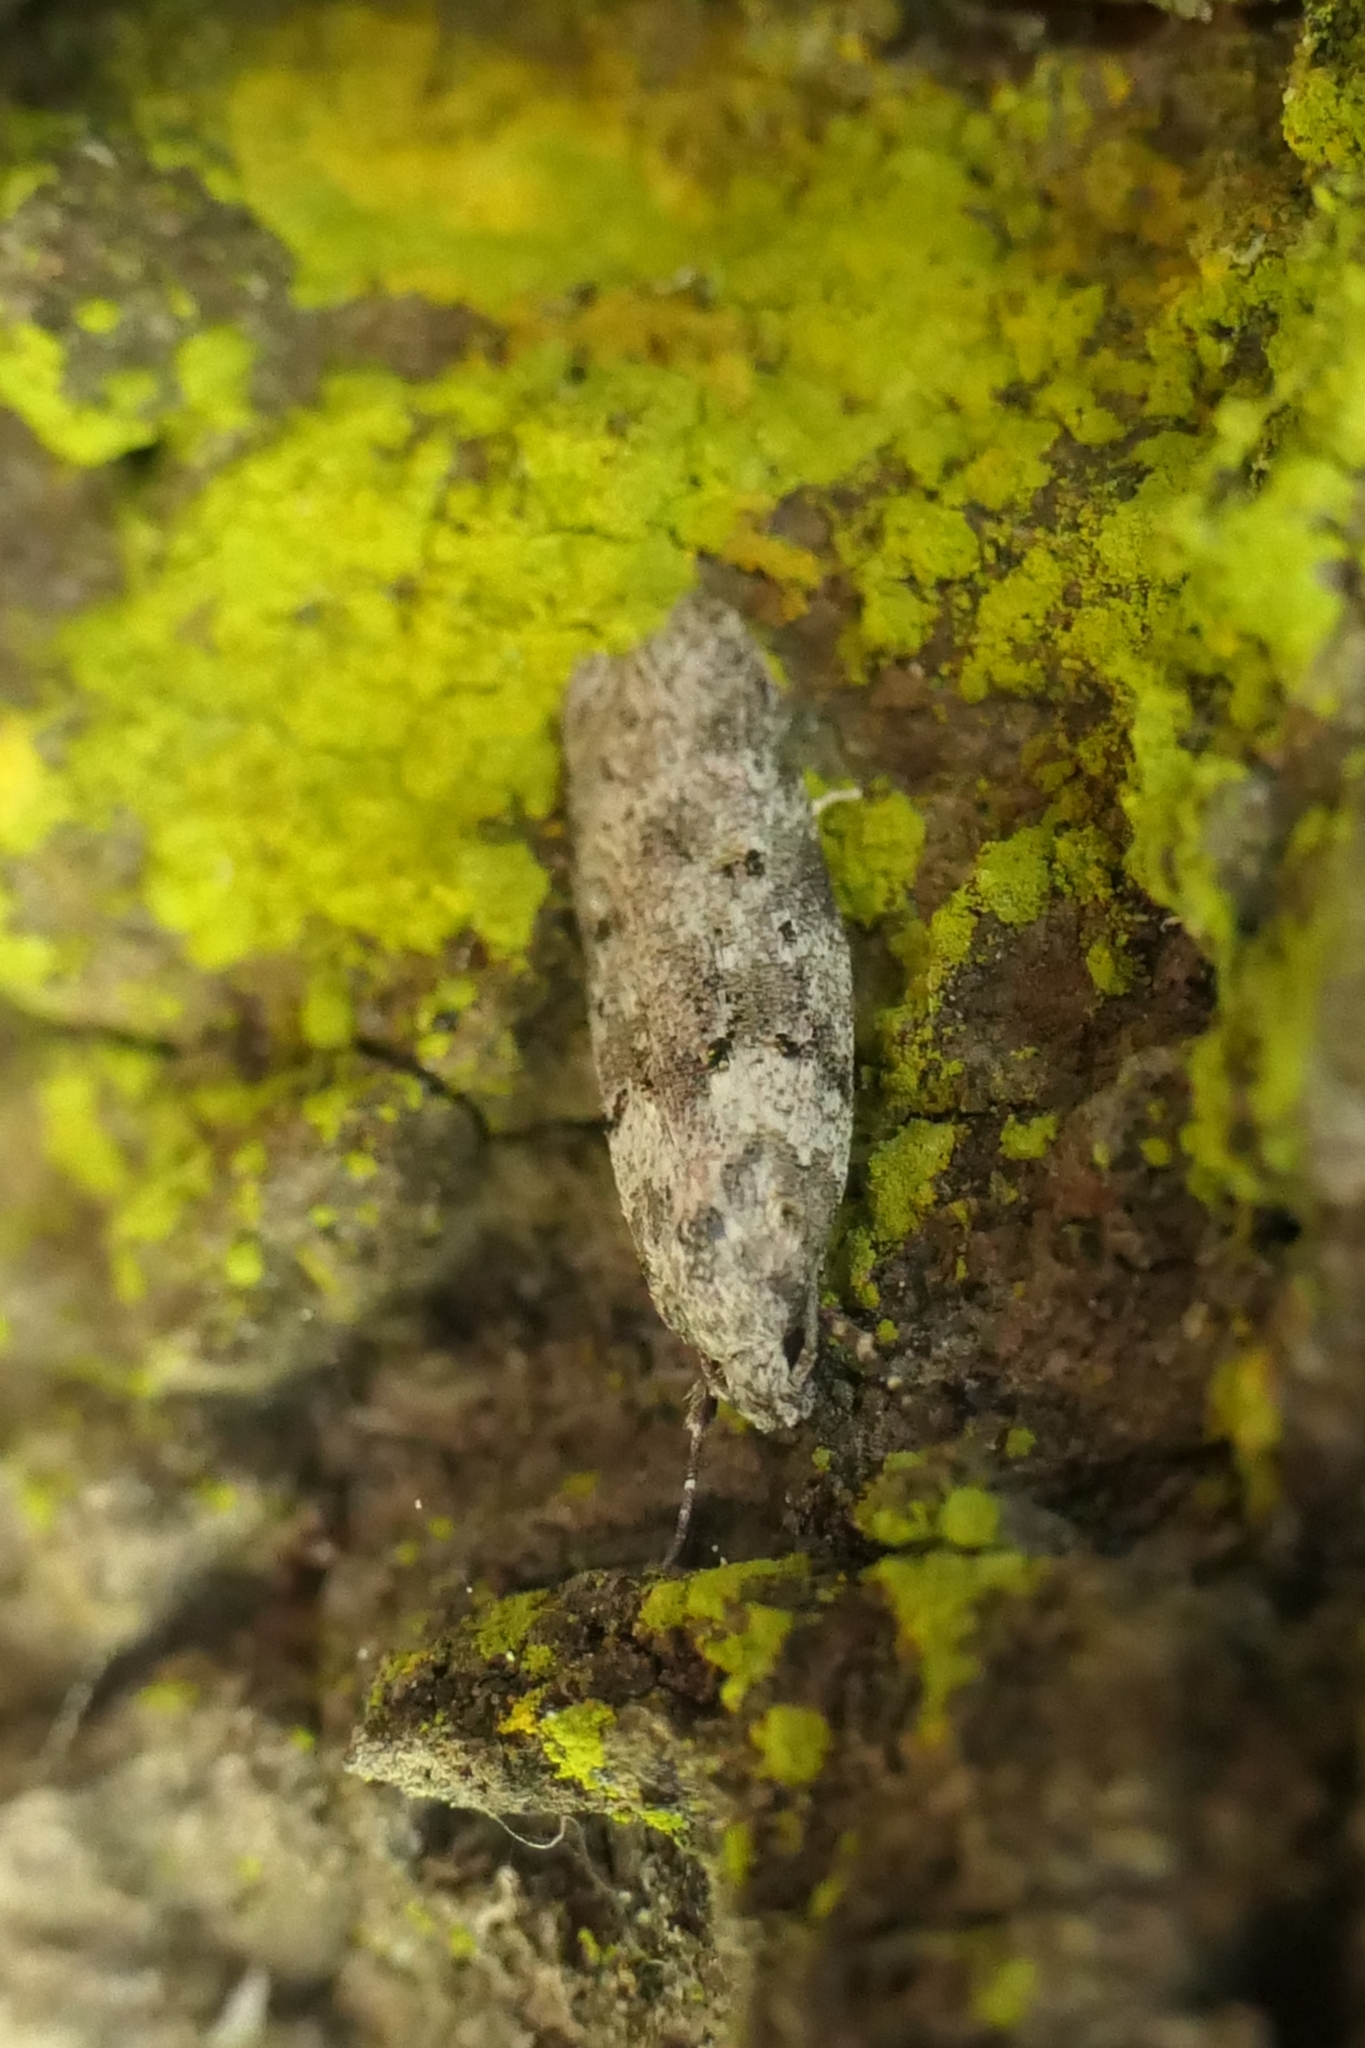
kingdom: Animalia
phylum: Arthropoda
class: Insecta
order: Lepidoptera
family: Oecophoridae
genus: Izatha
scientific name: Izatha convulsella
